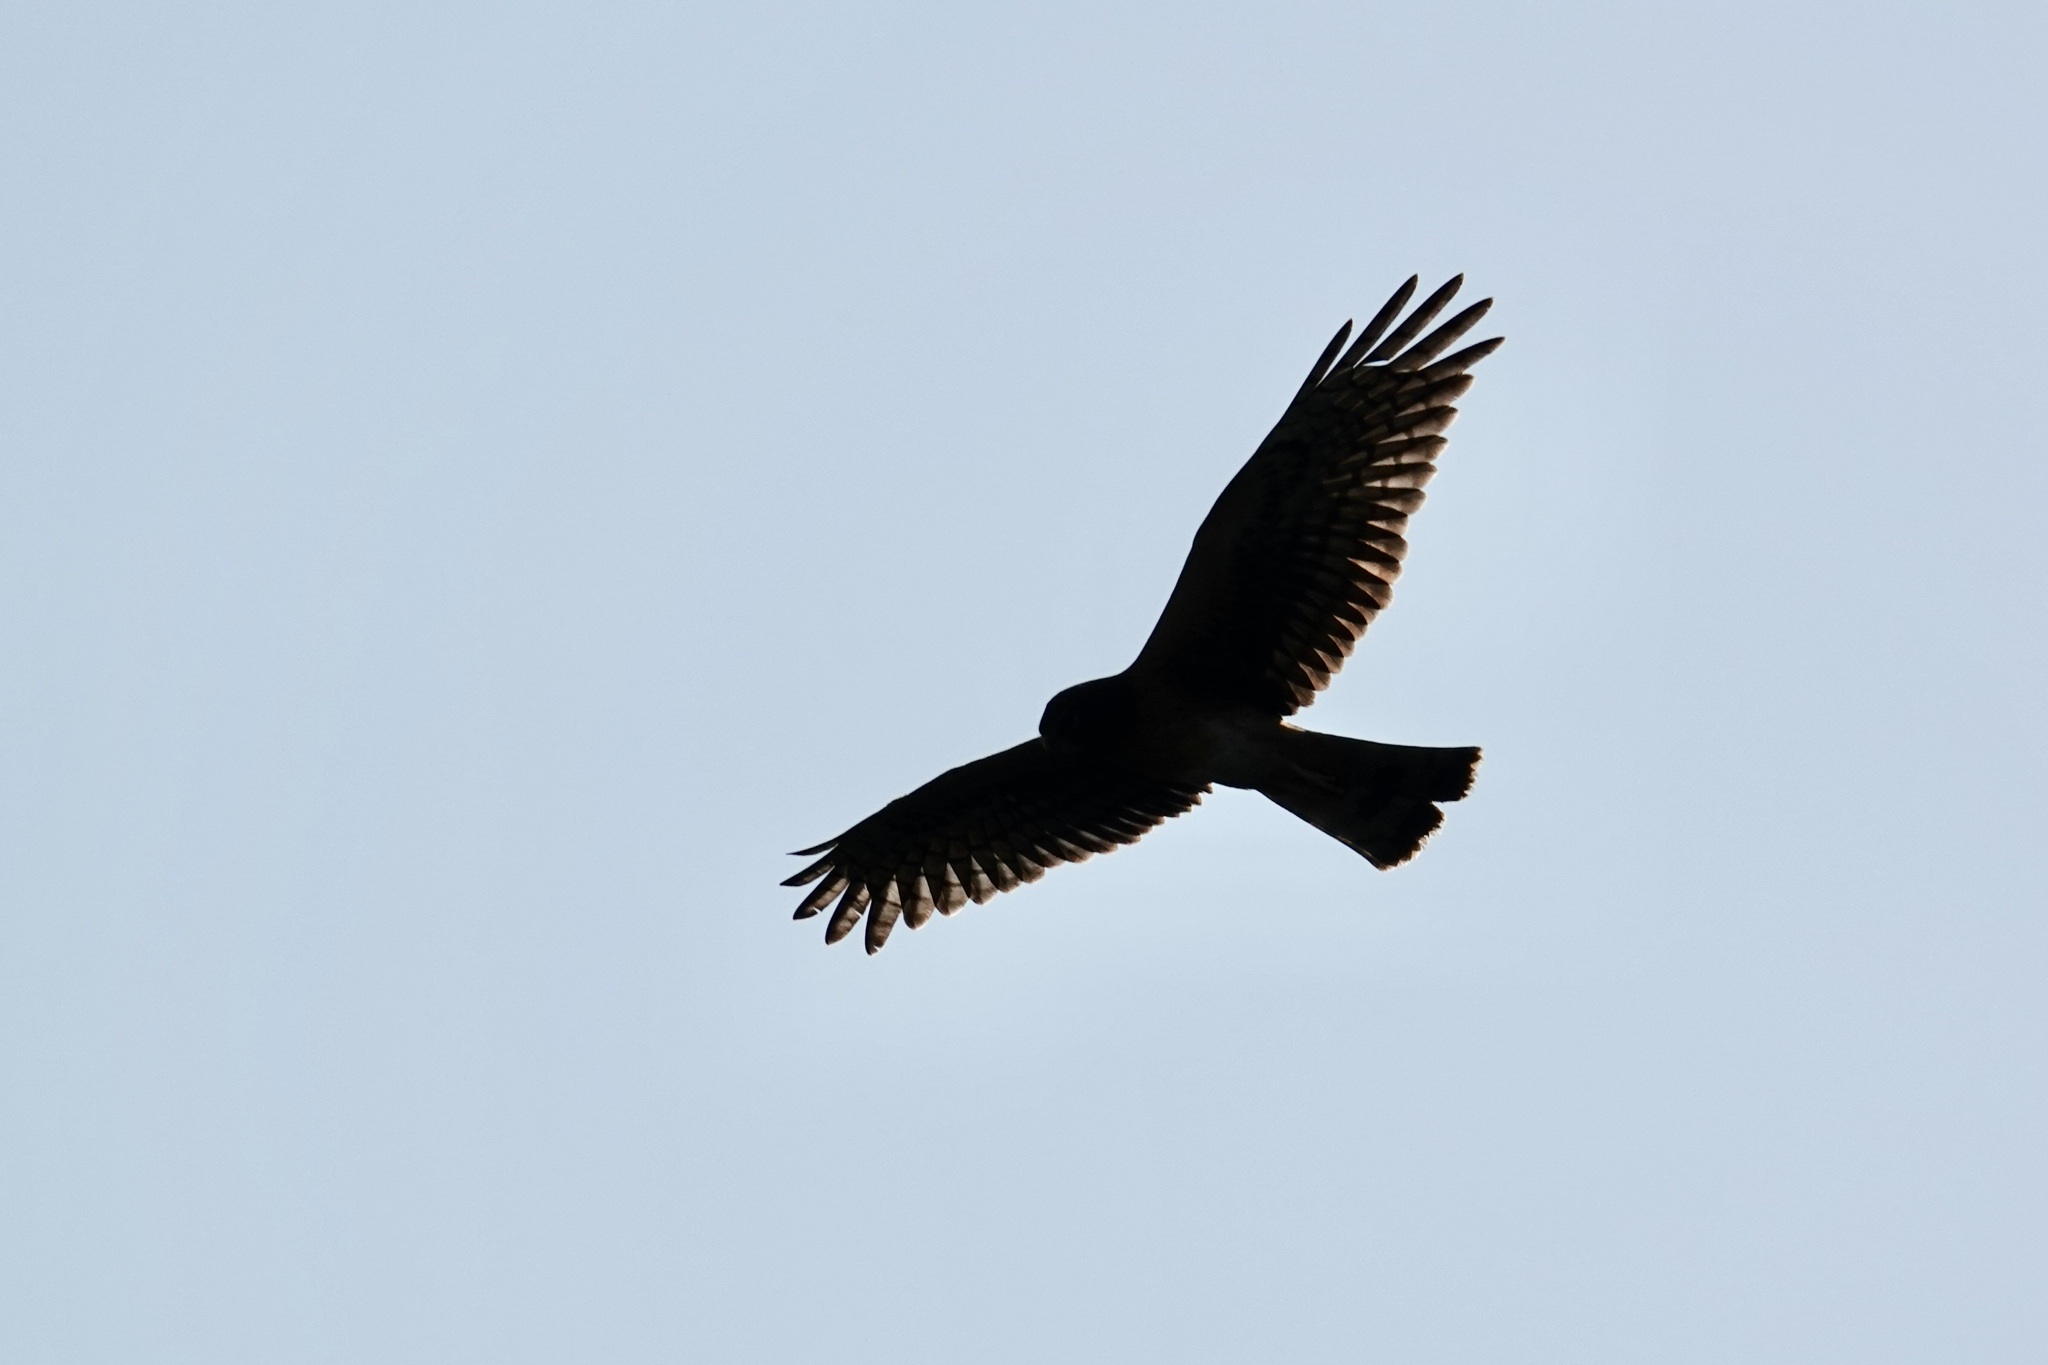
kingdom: Animalia
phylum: Chordata
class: Aves
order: Accipitriformes
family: Accipitridae
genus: Circus
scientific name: Circus cyaneus
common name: Hen harrier
